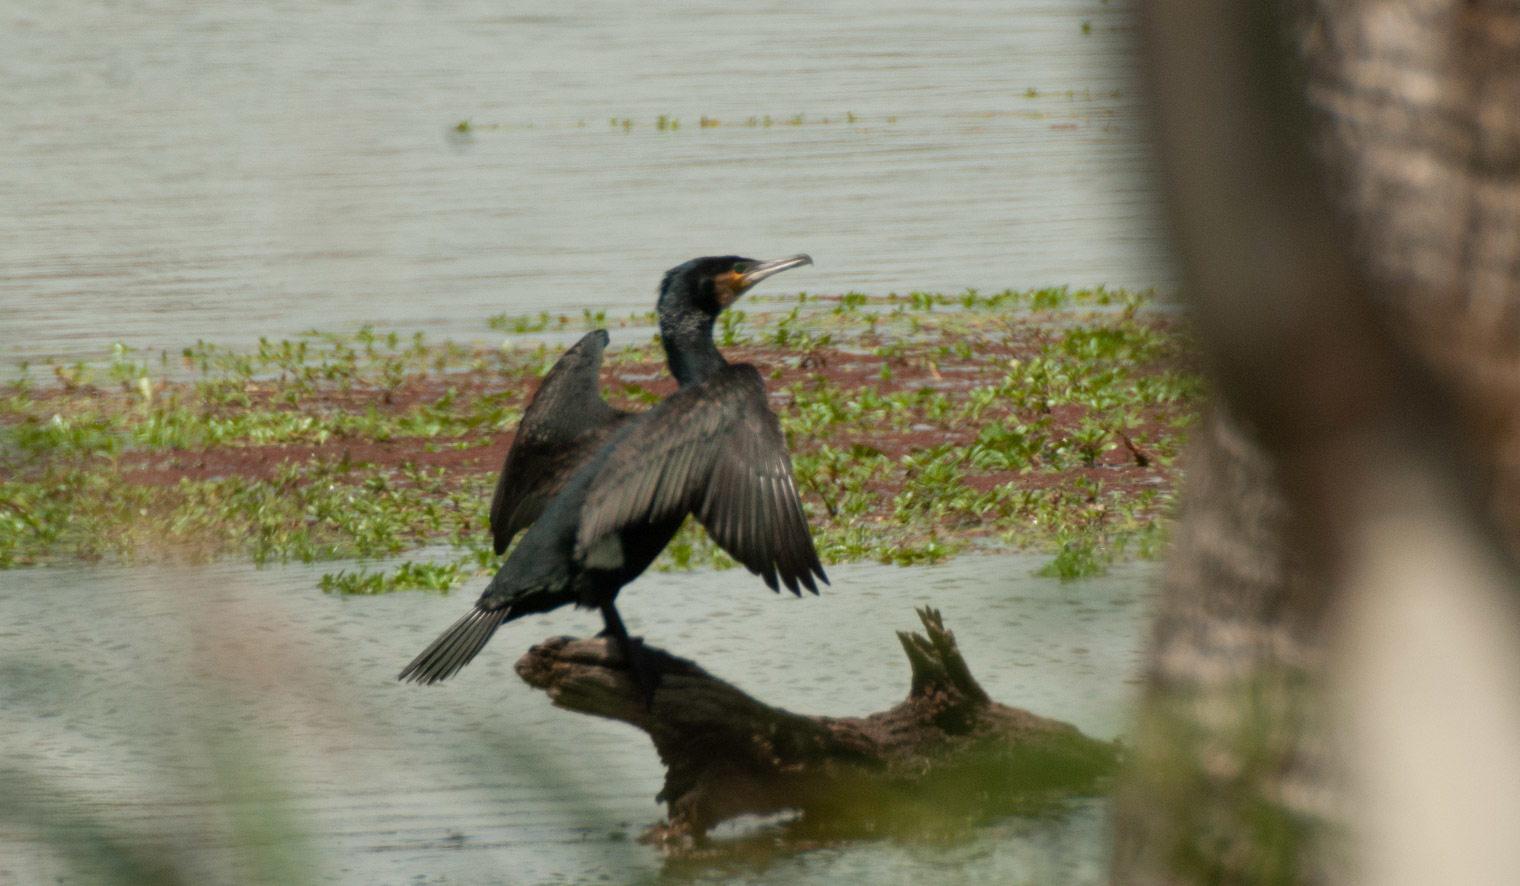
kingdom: Animalia
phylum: Chordata
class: Aves
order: Suliformes
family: Phalacrocoracidae
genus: Phalacrocorax
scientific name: Phalacrocorax carbo
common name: Great cormorant
